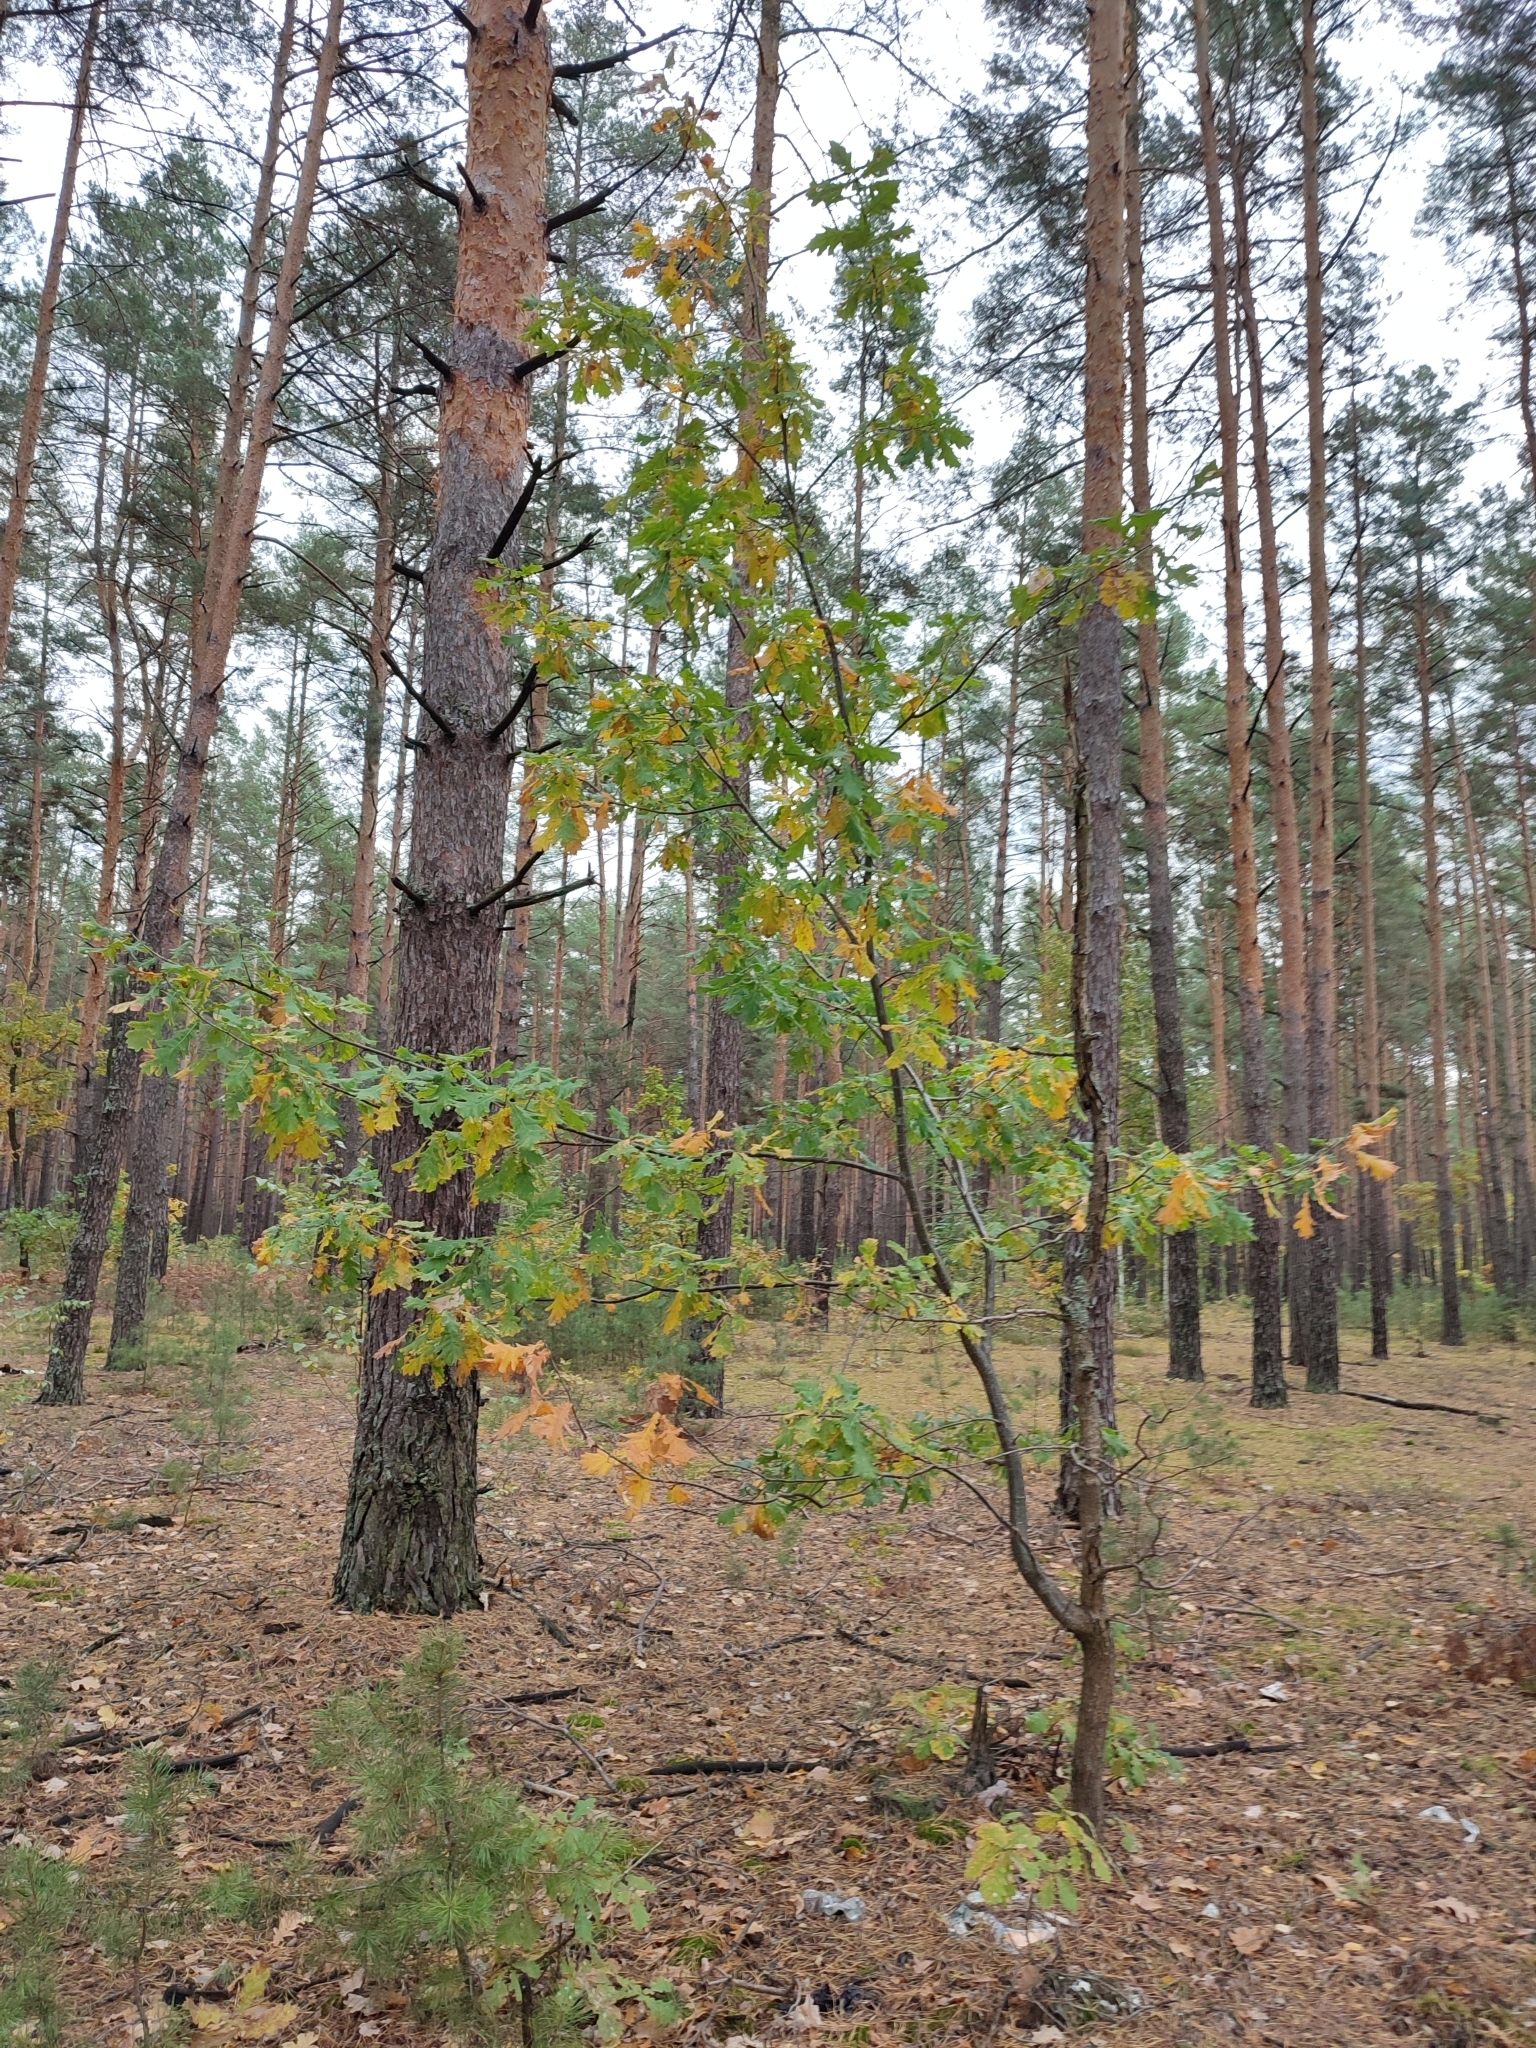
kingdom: Plantae
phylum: Tracheophyta
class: Magnoliopsida
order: Fagales
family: Fagaceae
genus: Quercus
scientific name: Quercus robur
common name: Pedunculate oak
